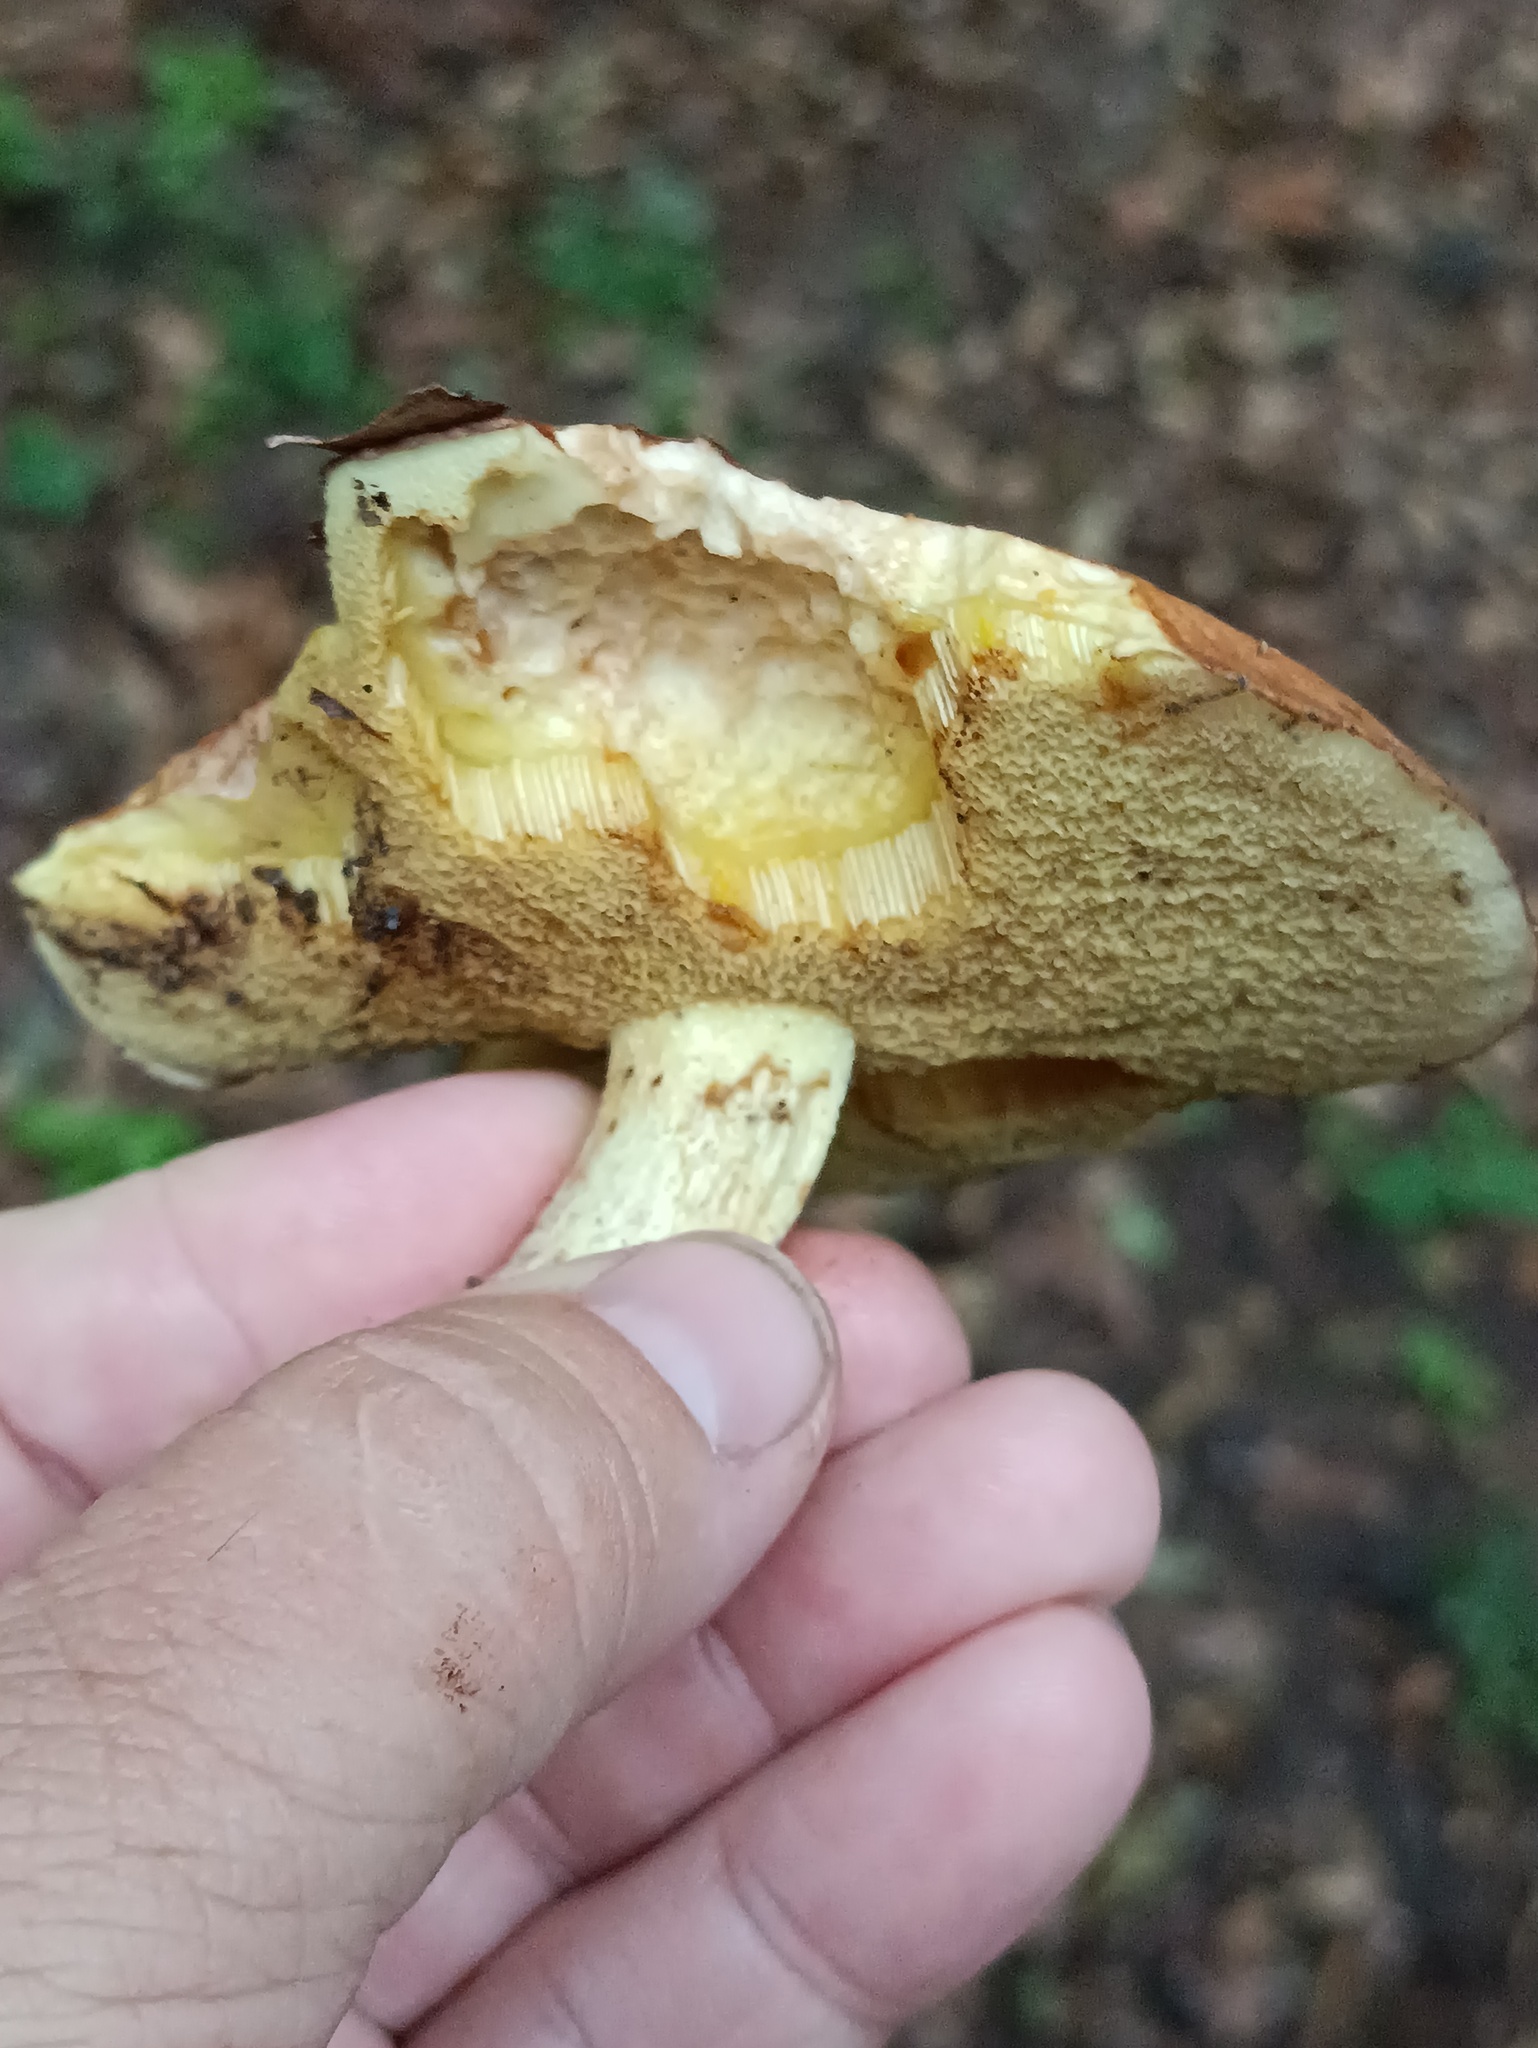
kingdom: Fungi
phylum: Basidiomycota
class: Agaricomycetes
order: Boletales
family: Suillaceae
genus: Suillus
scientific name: Suillus granulatus
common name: Weeping bolete
